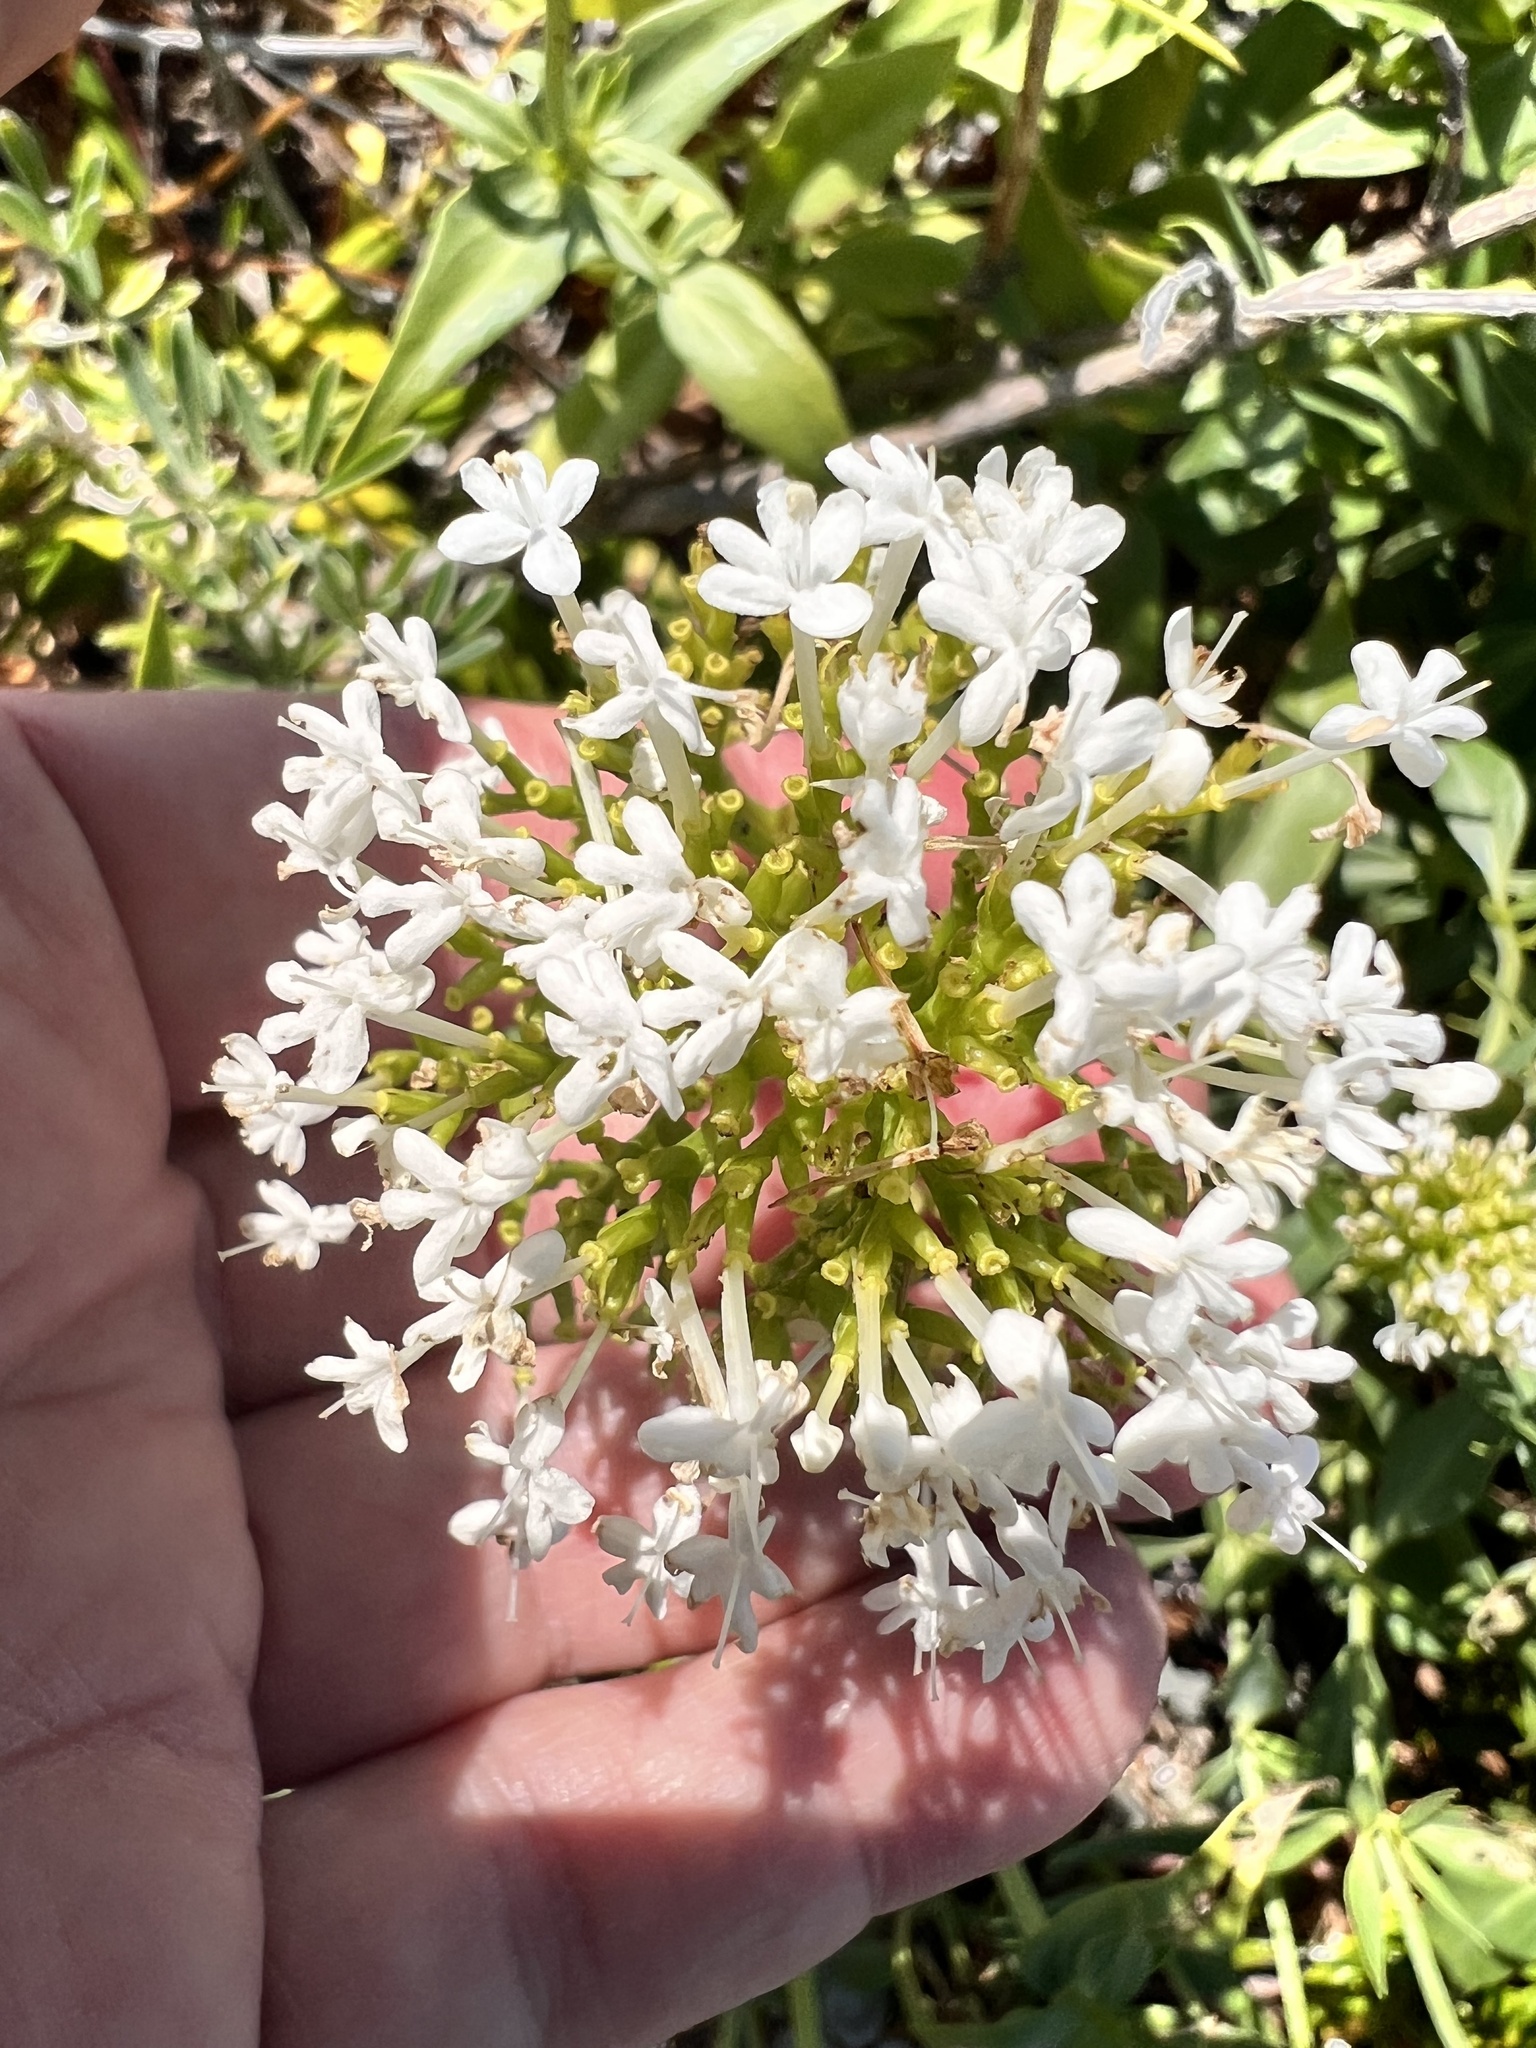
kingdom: Plantae
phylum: Tracheophyta
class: Magnoliopsida
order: Dipsacales
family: Caprifoliaceae
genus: Centranthus
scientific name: Centranthus ruber
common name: Red valerian
